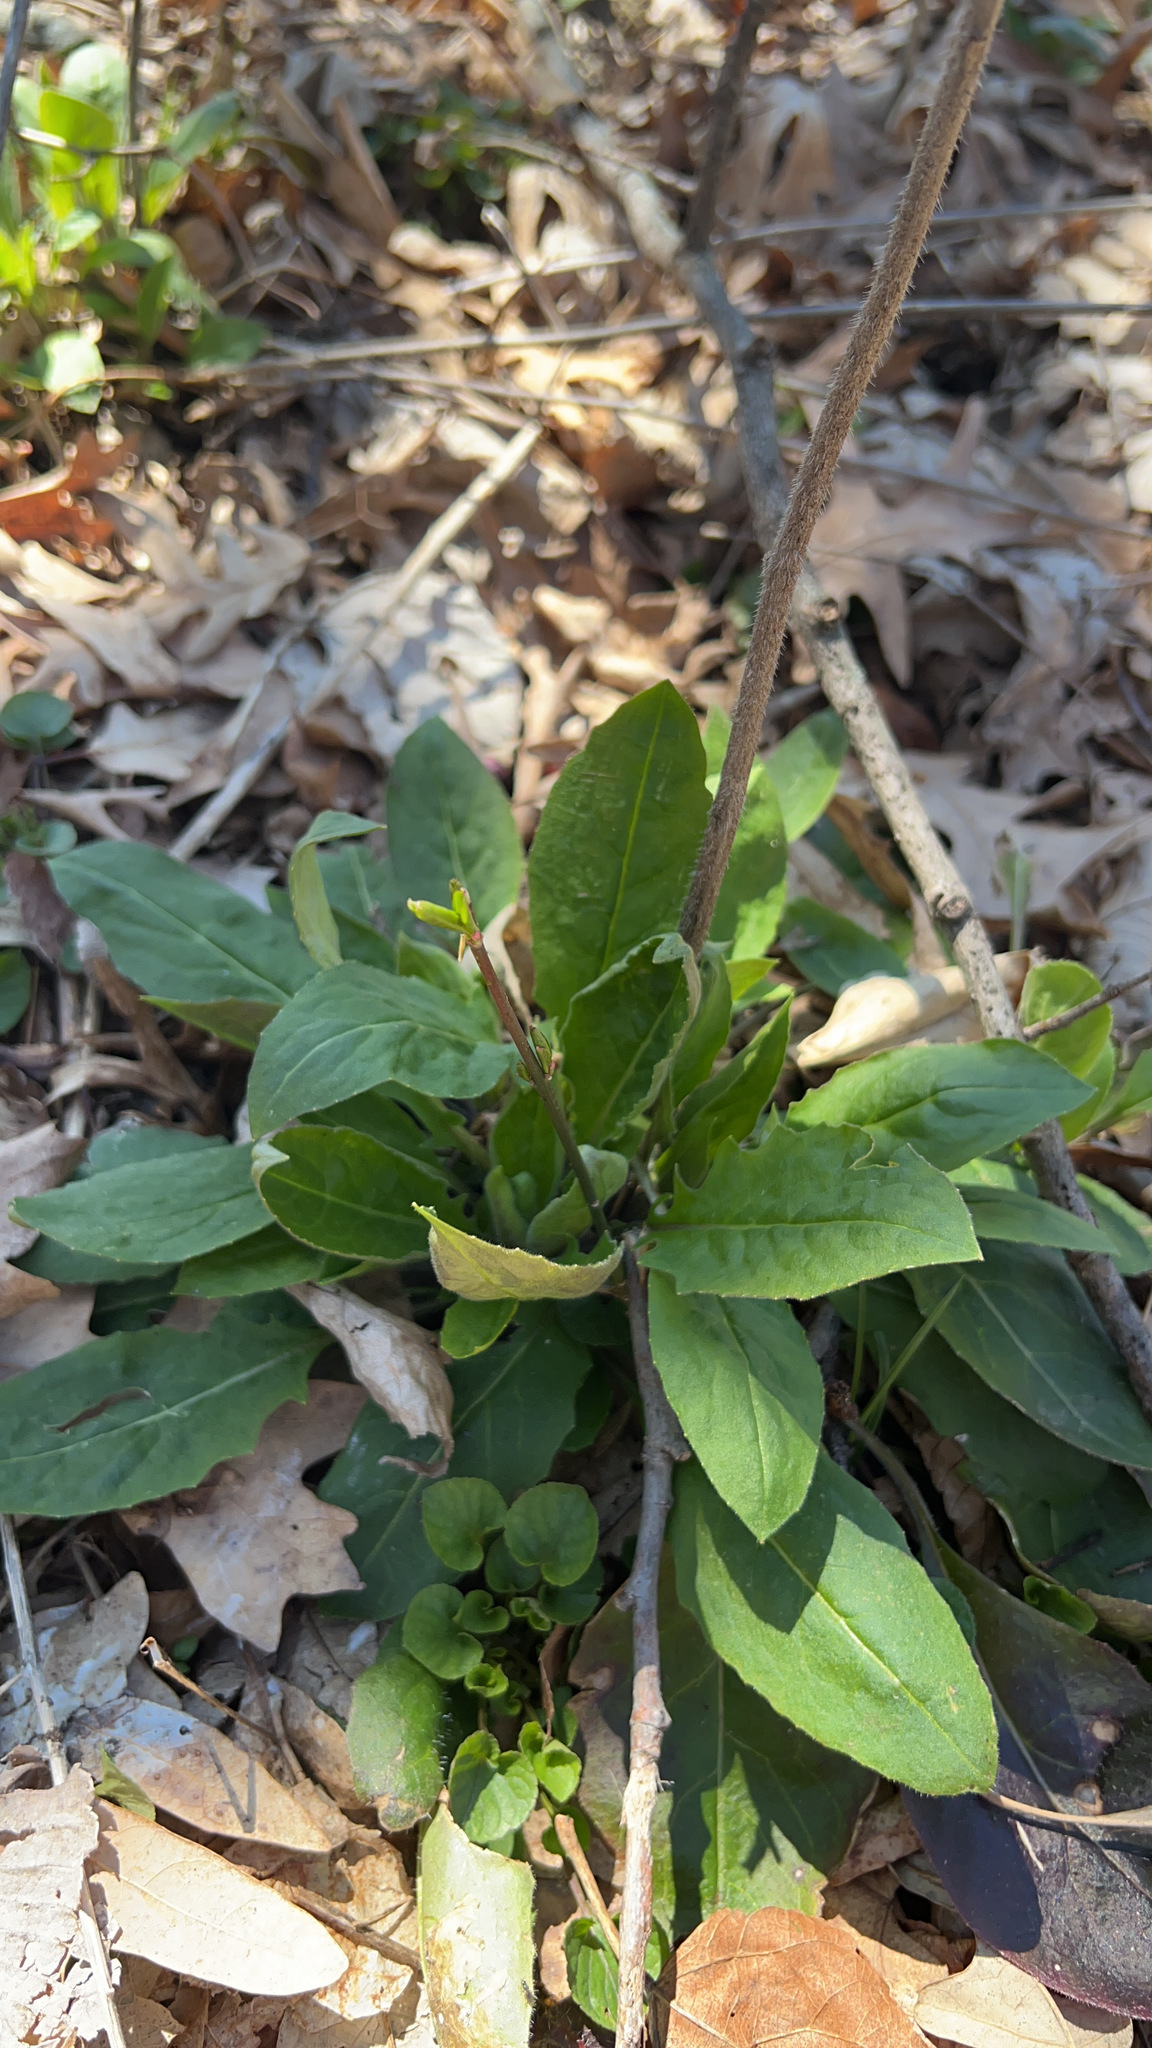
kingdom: Plantae
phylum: Tracheophyta
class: Magnoliopsida
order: Brassicales
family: Brassicaceae
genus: Hesperis
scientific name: Hesperis matronalis
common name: Dame's-violet
